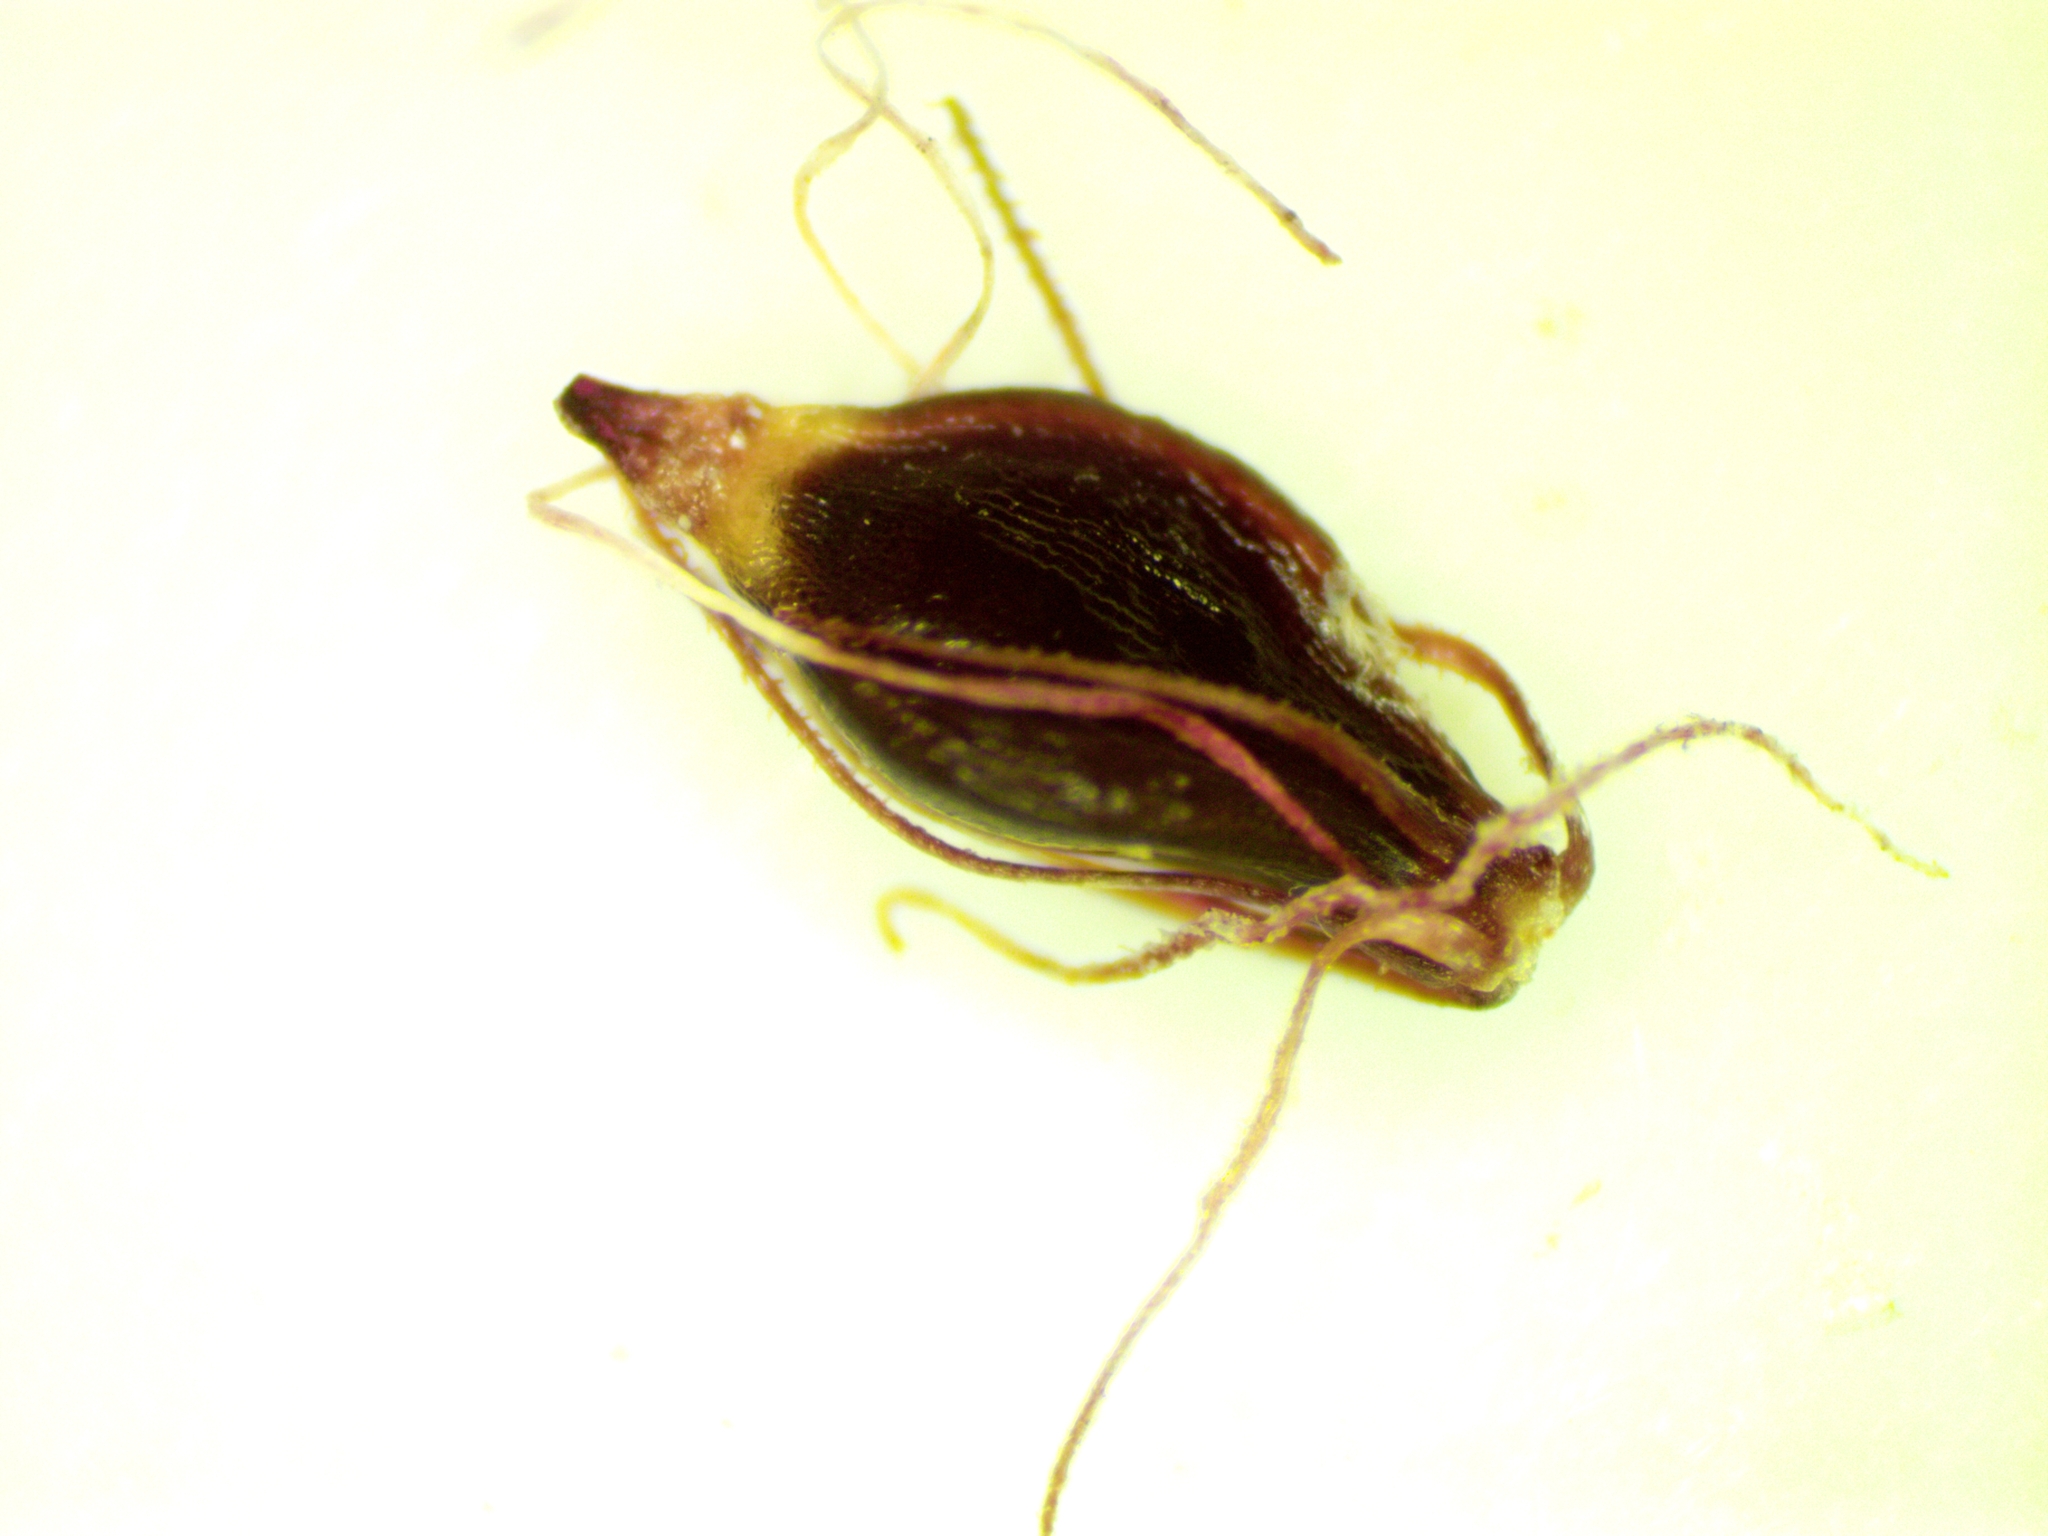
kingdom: Plantae
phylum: Tracheophyta
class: Liliopsida
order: Poales
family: Cyperaceae
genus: Eleocharis
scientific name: Eleocharis quinqueflora
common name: Few-flowered spike-rush
